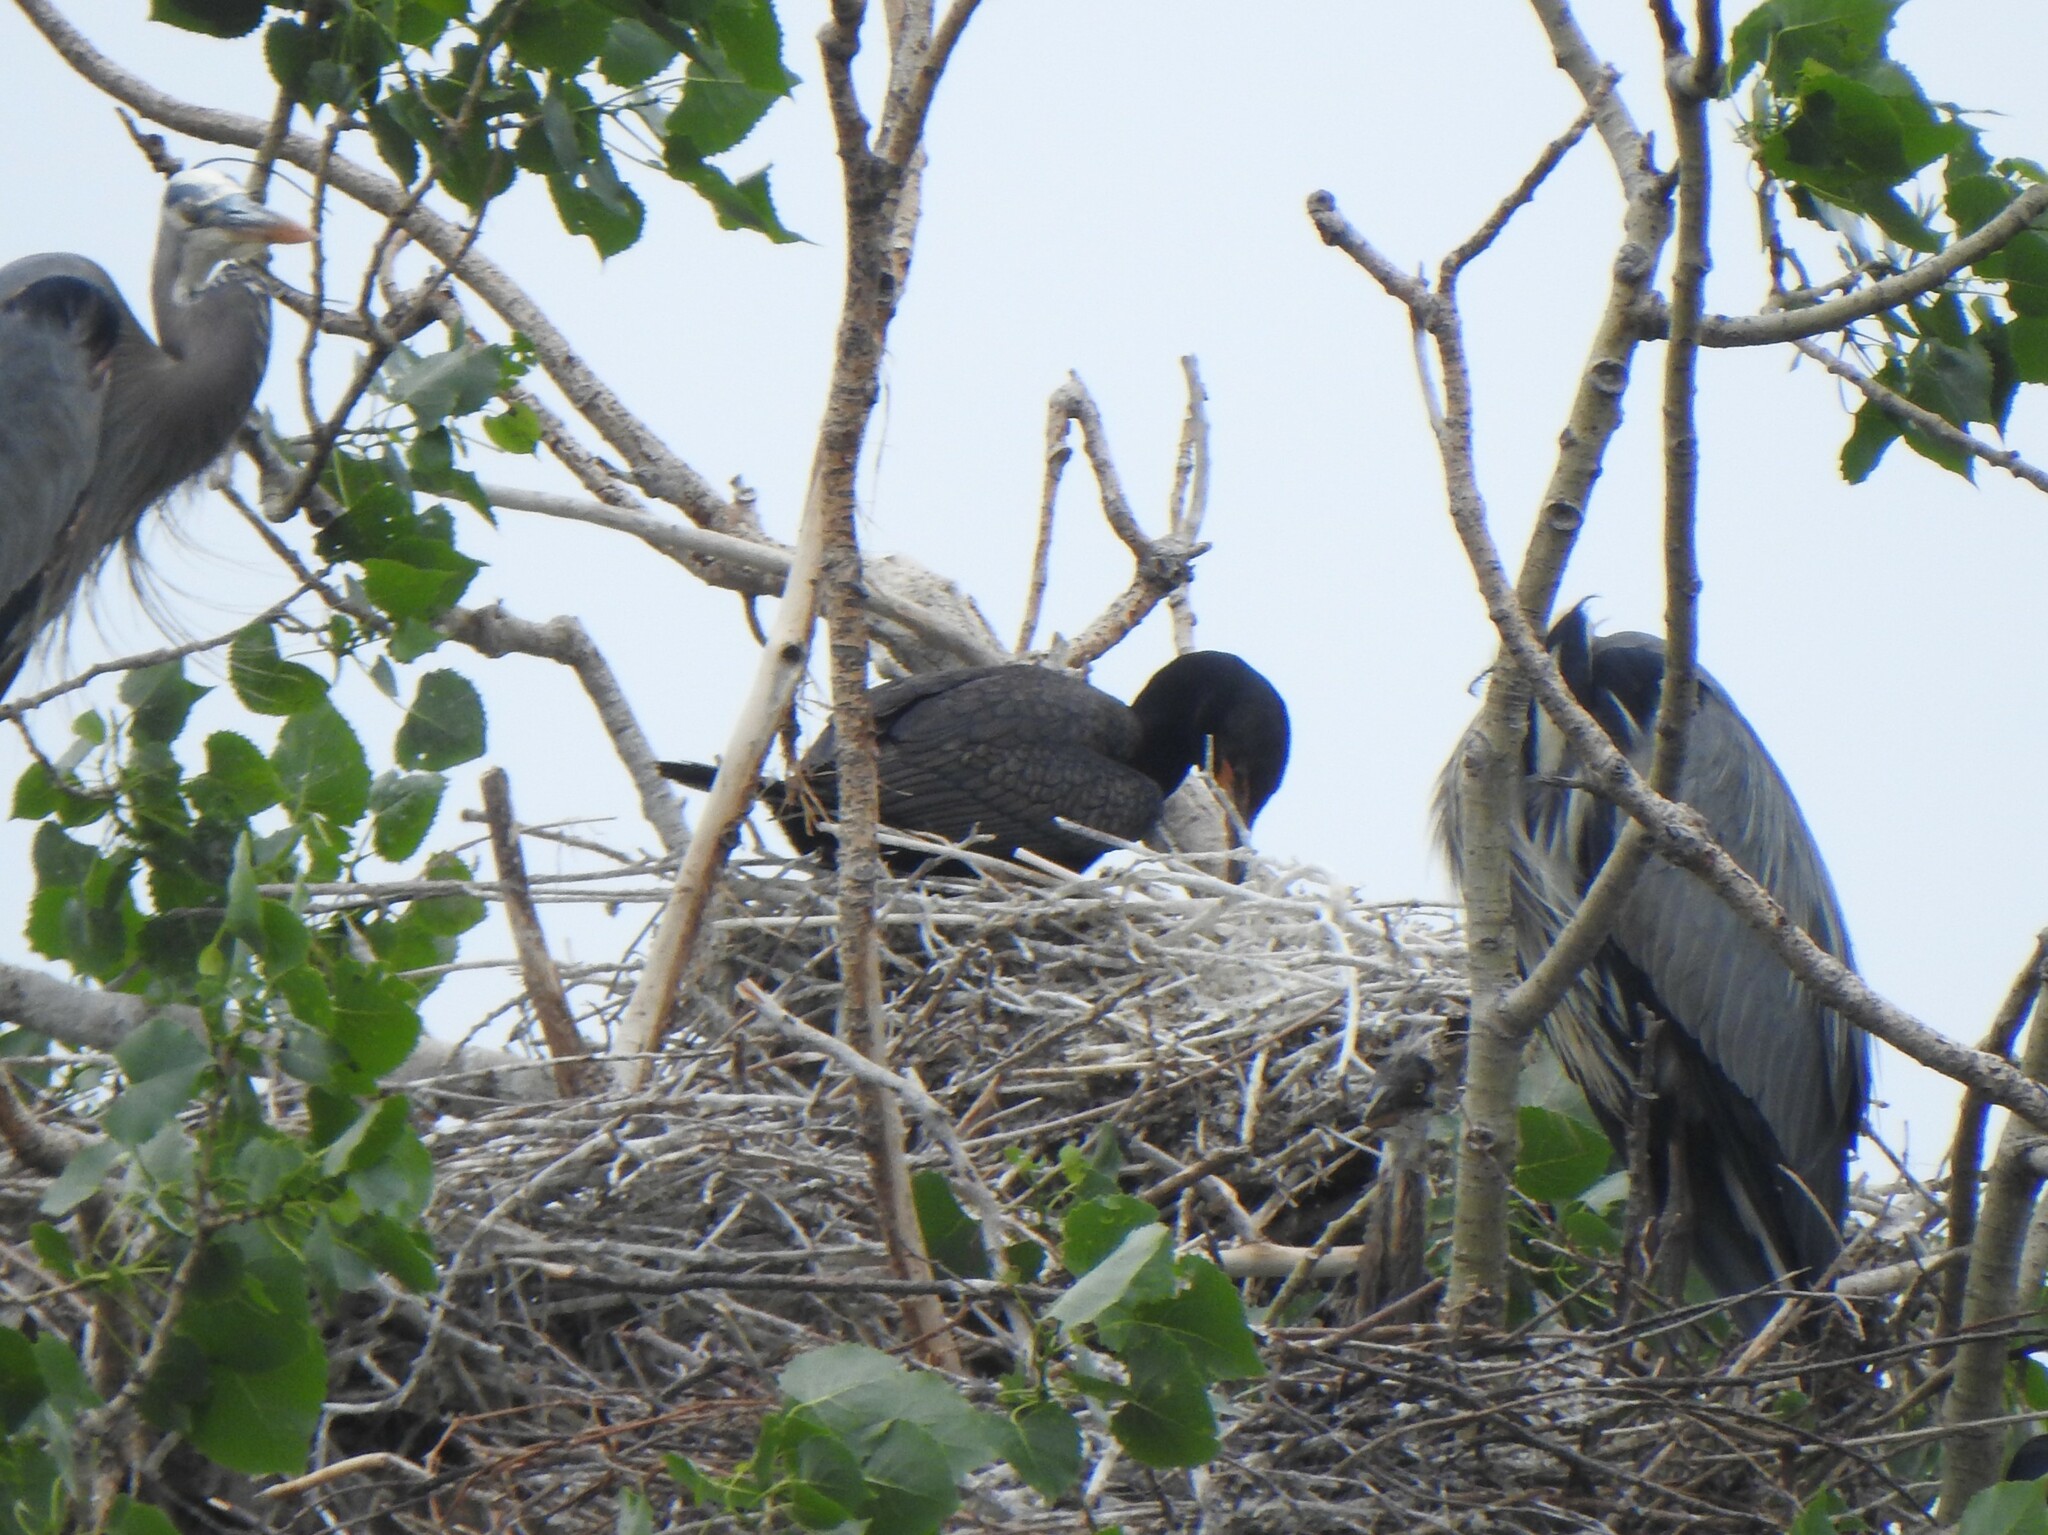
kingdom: Animalia
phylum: Chordata
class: Aves
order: Suliformes
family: Phalacrocoracidae
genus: Phalacrocorax
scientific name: Phalacrocorax auritus
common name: Double-crested cormorant
